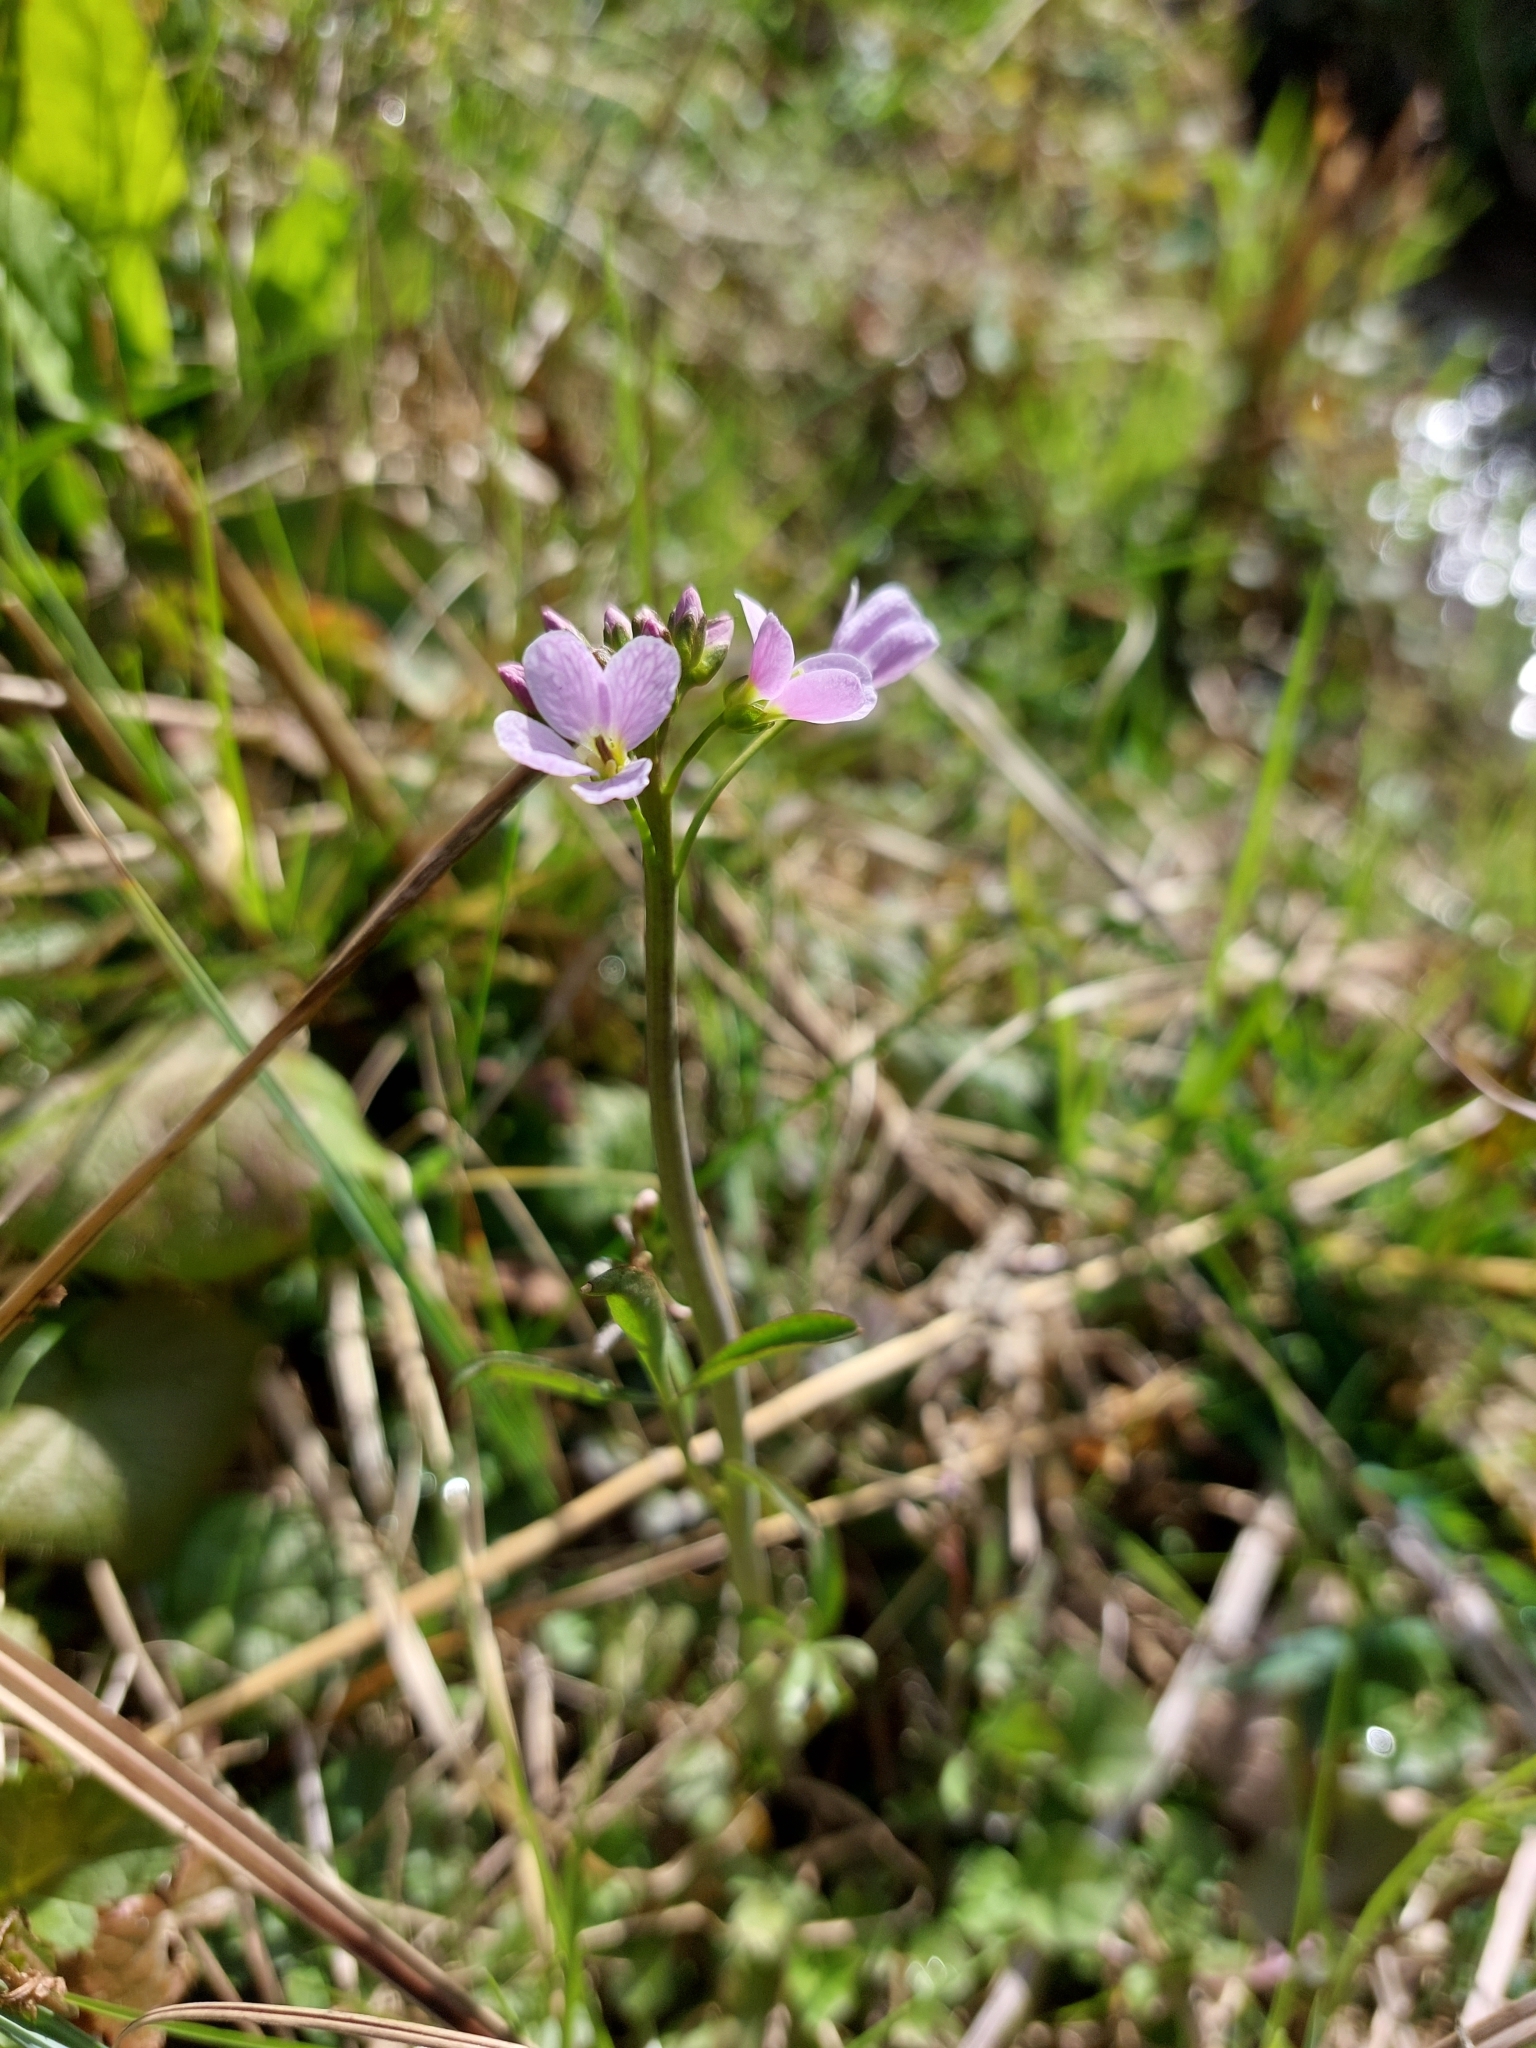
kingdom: Plantae
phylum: Tracheophyta
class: Magnoliopsida
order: Brassicales
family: Brassicaceae
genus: Cardamine
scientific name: Cardamine pratensis
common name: Cuckoo flower
